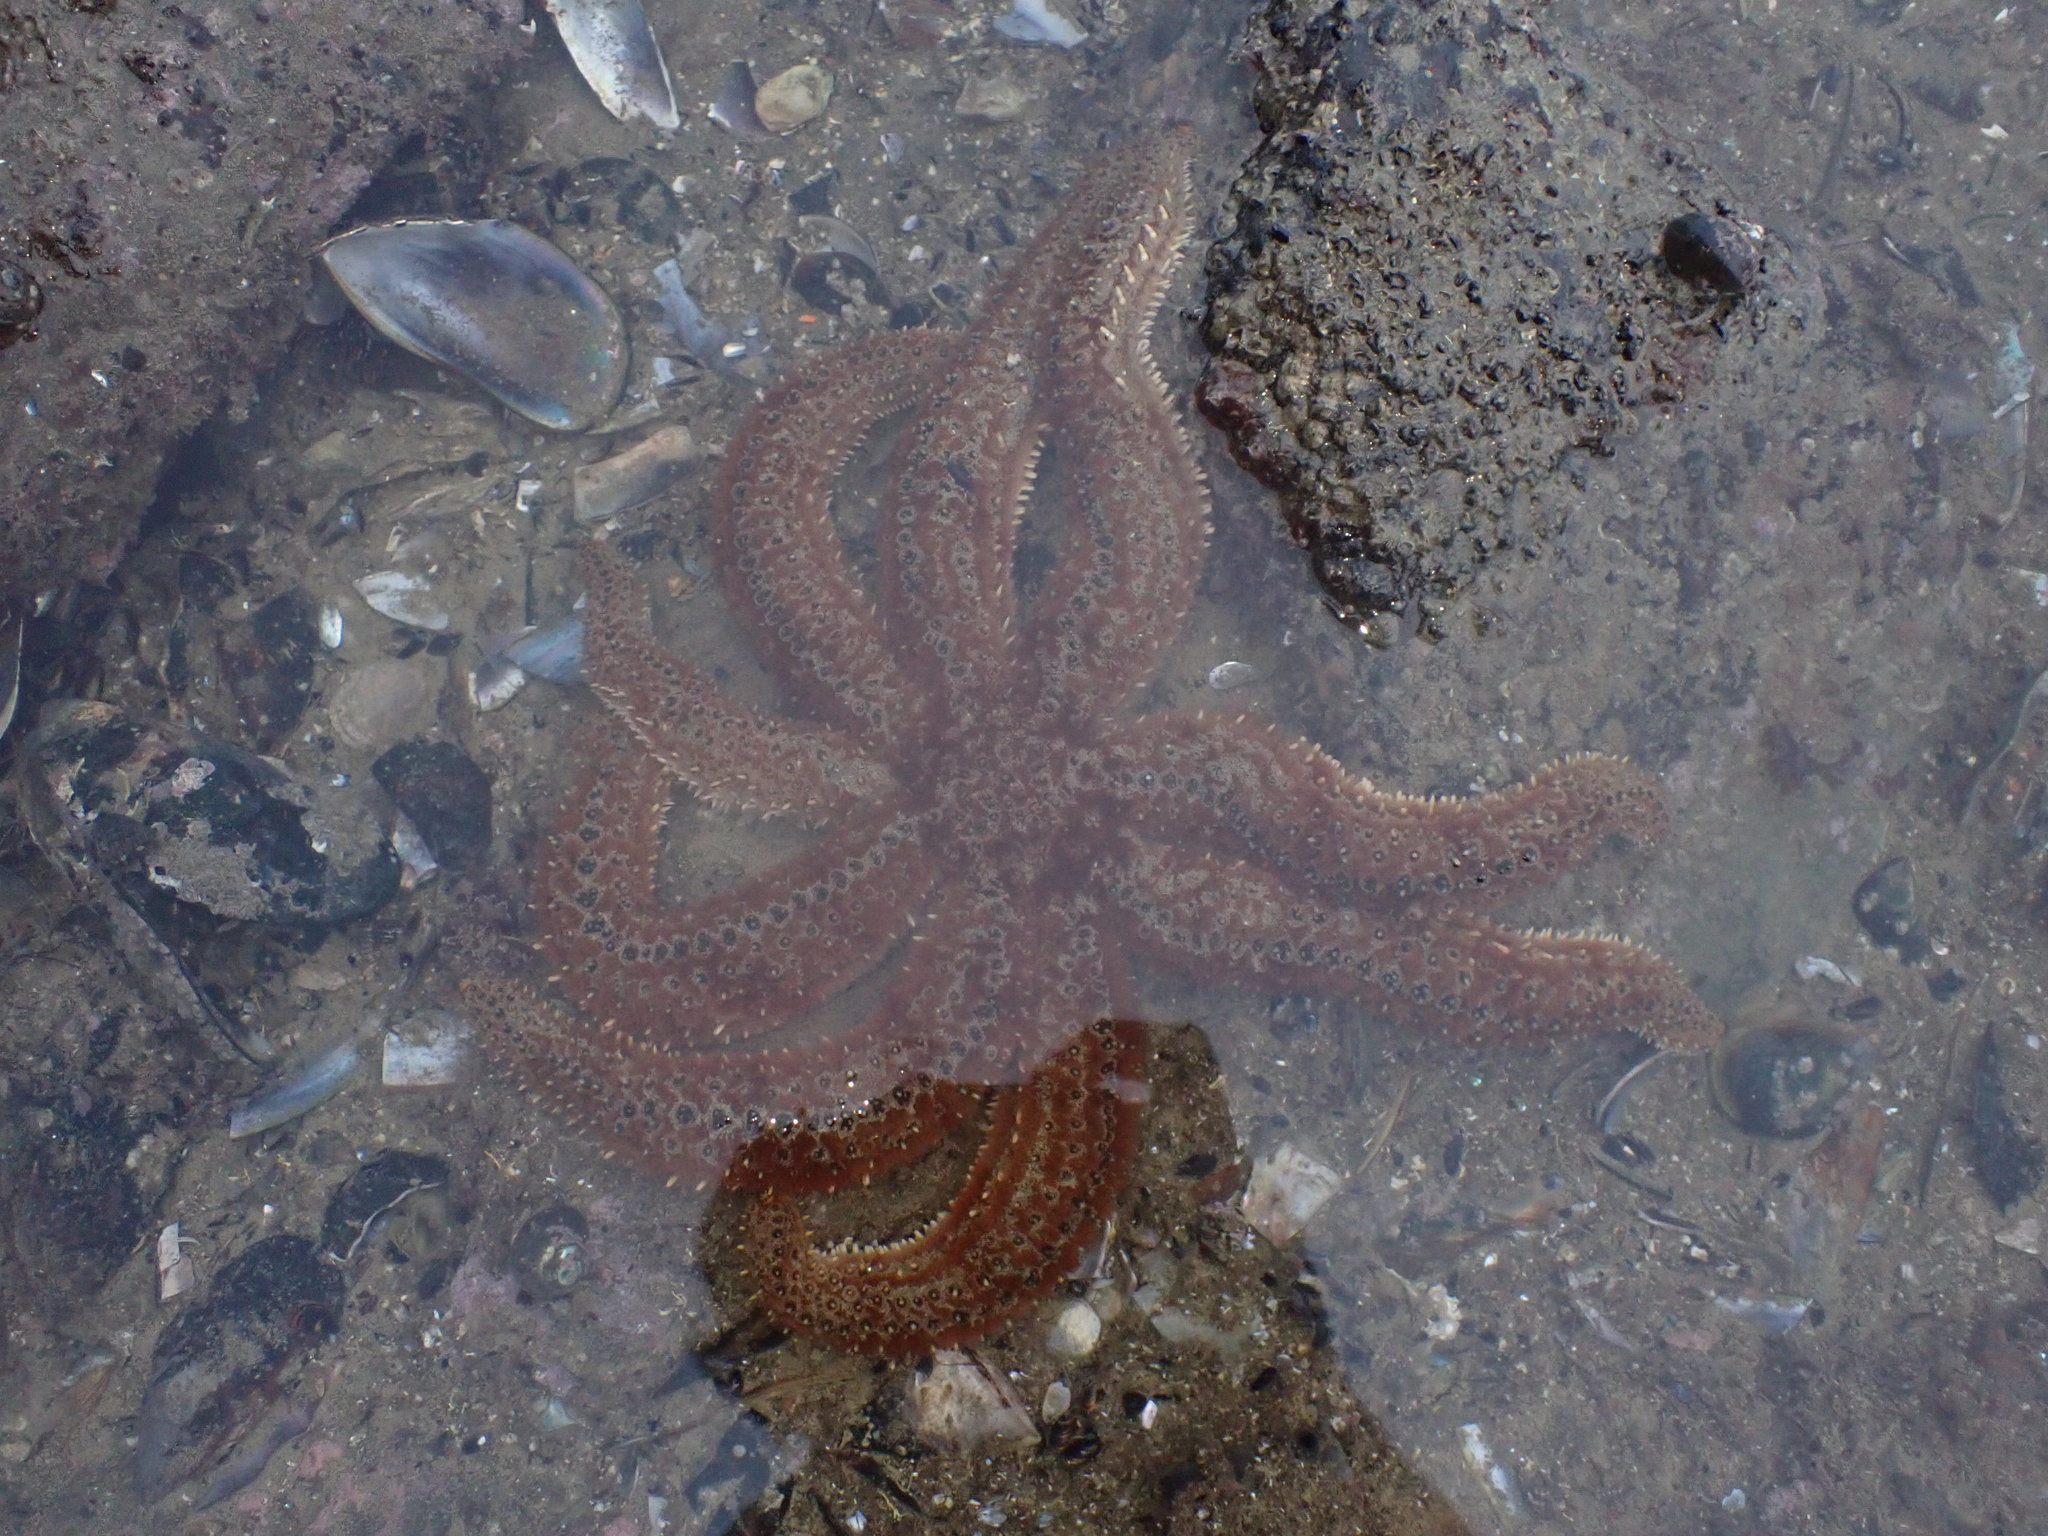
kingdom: Animalia
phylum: Echinodermata
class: Asteroidea
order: Forcipulatida
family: Asteriidae
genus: Coscinasterias
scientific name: Coscinasterias muricata
